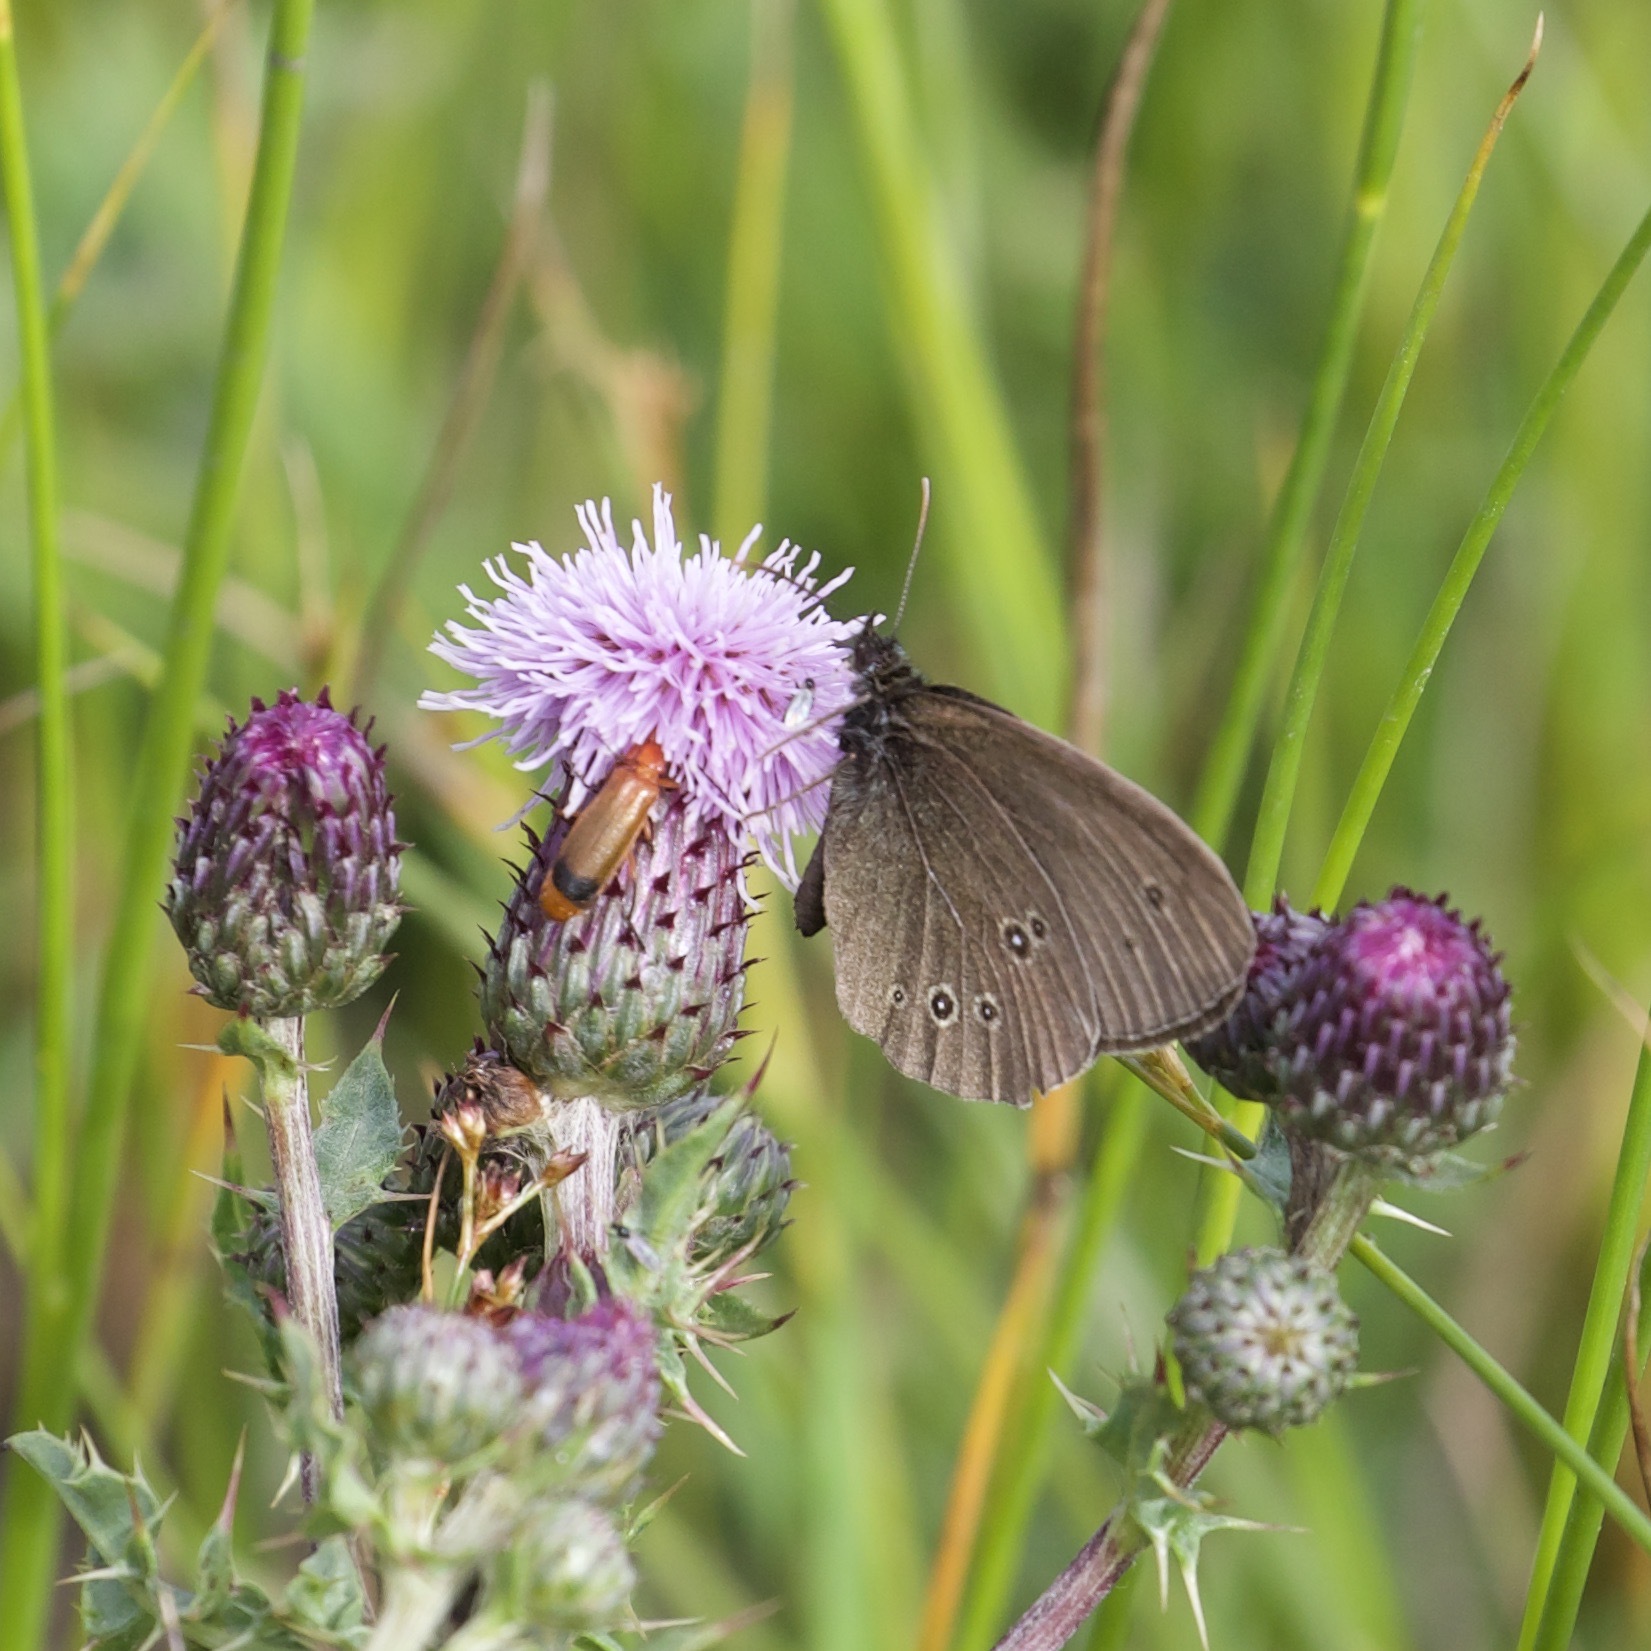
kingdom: Animalia
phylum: Arthropoda
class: Insecta
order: Lepidoptera
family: Nymphalidae
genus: Aphantopus
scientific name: Aphantopus hyperantus
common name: Ringlet
